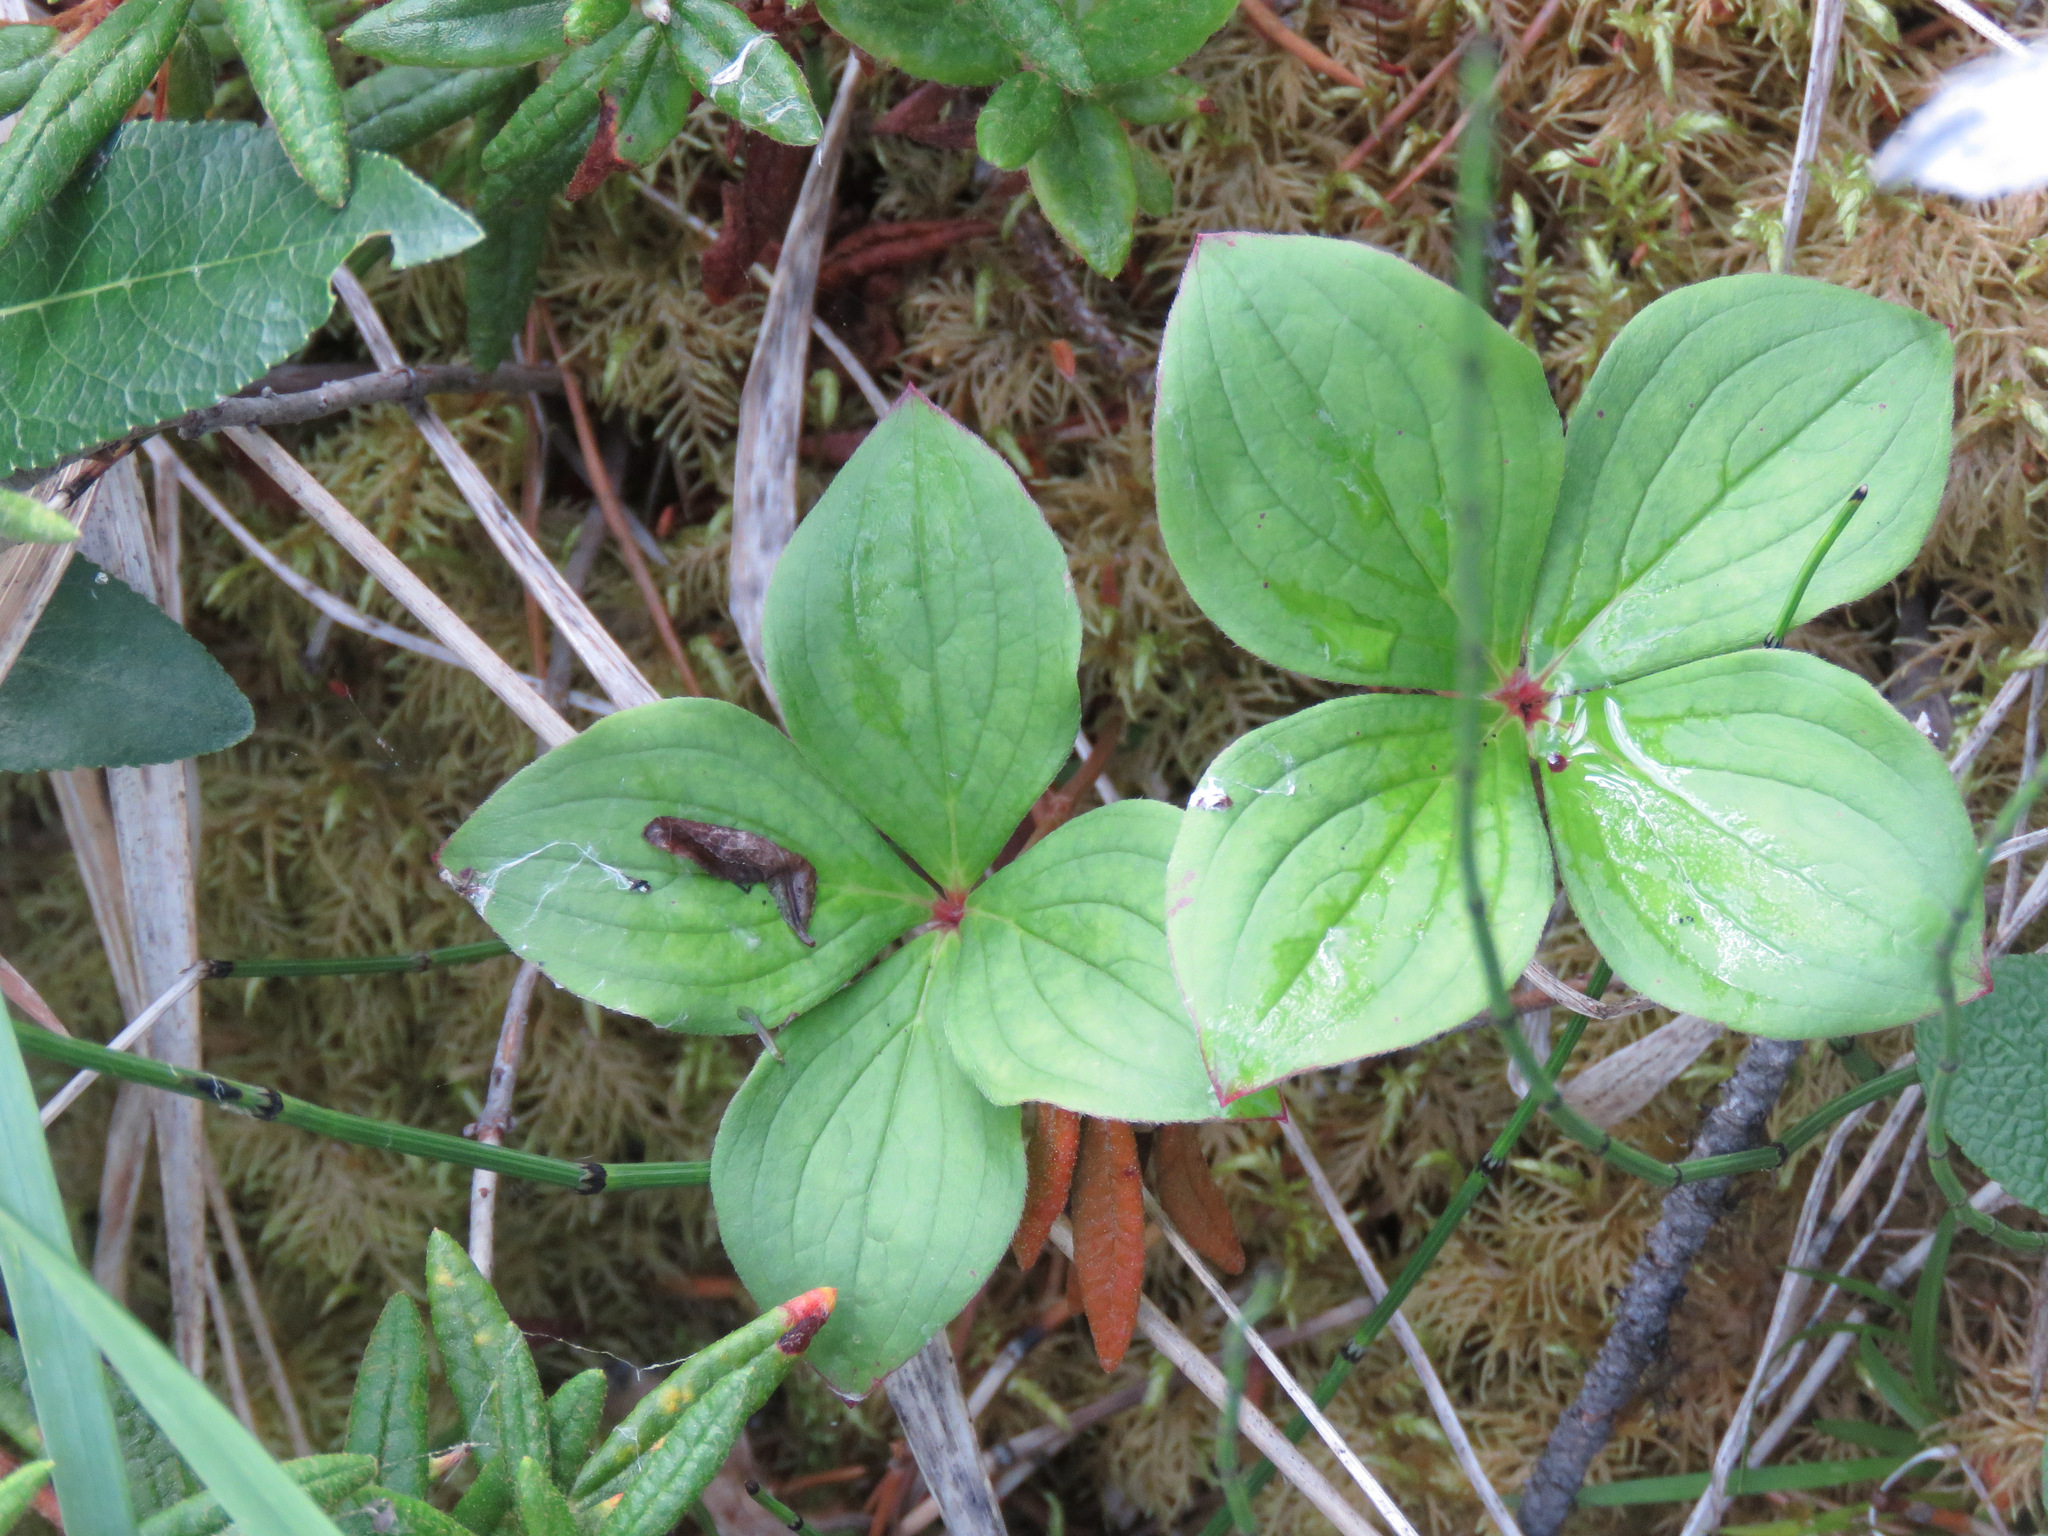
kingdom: Plantae
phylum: Tracheophyta
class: Magnoliopsida
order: Cornales
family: Cornaceae
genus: Cornus
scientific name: Cornus canadensis
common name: Creeping dogwood
